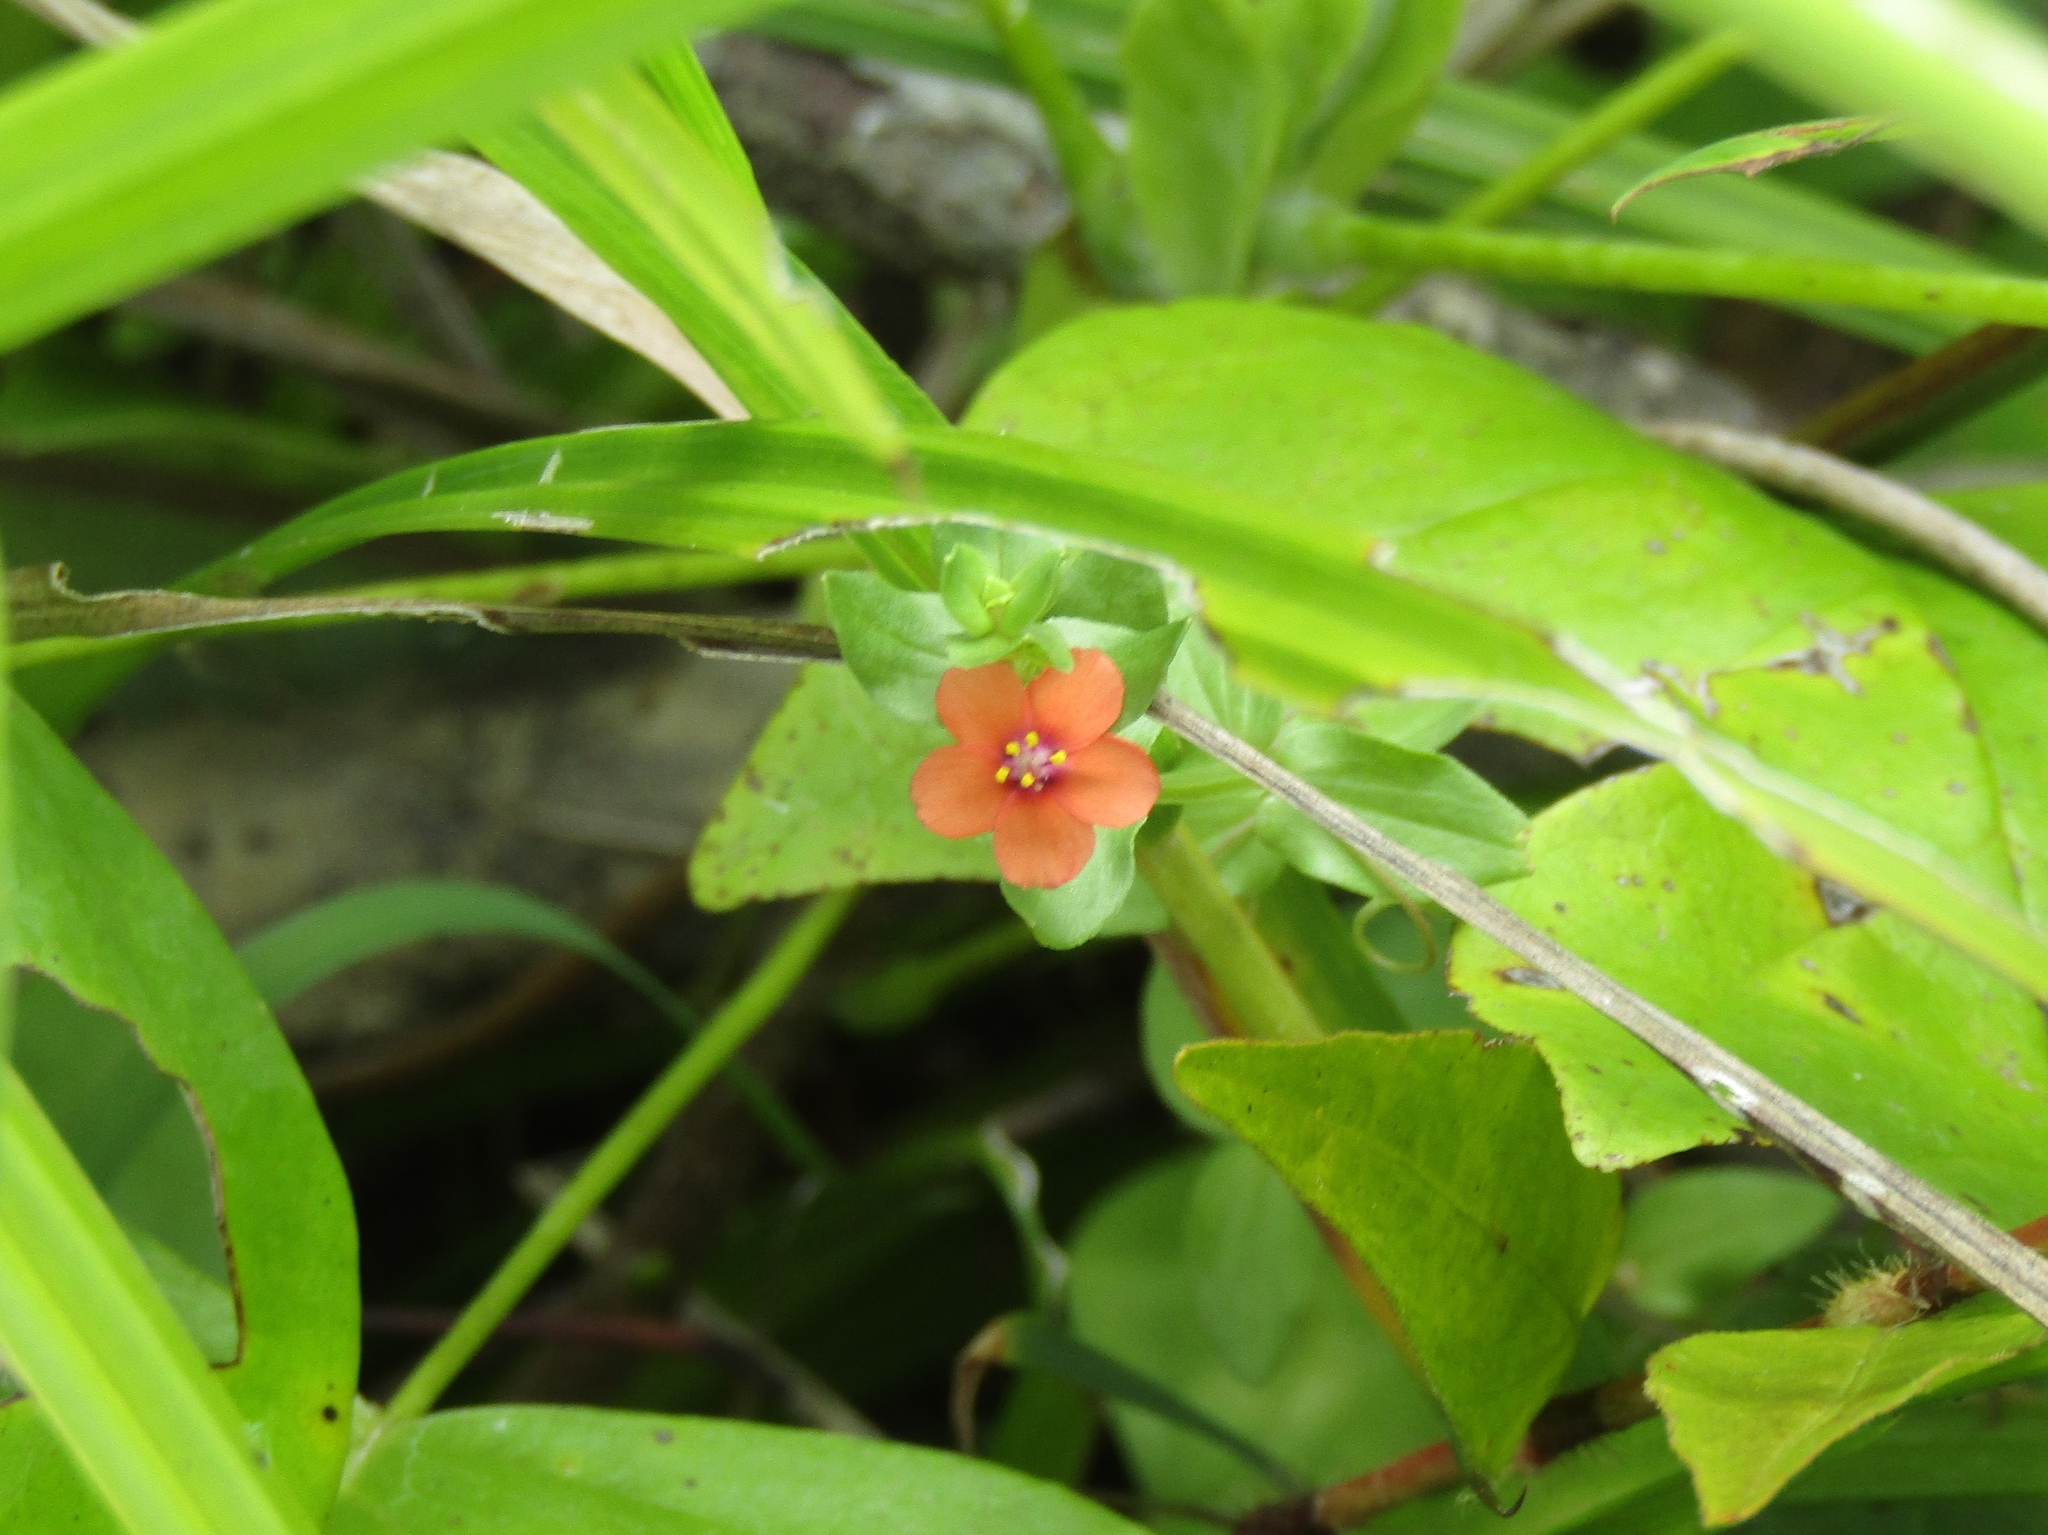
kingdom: Plantae
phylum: Tracheophyta
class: Magnoliopsida
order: Ericales
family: Primulaceae
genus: Lysimachia
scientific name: Lysimachia arvensis
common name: Scarlet pimpernel
